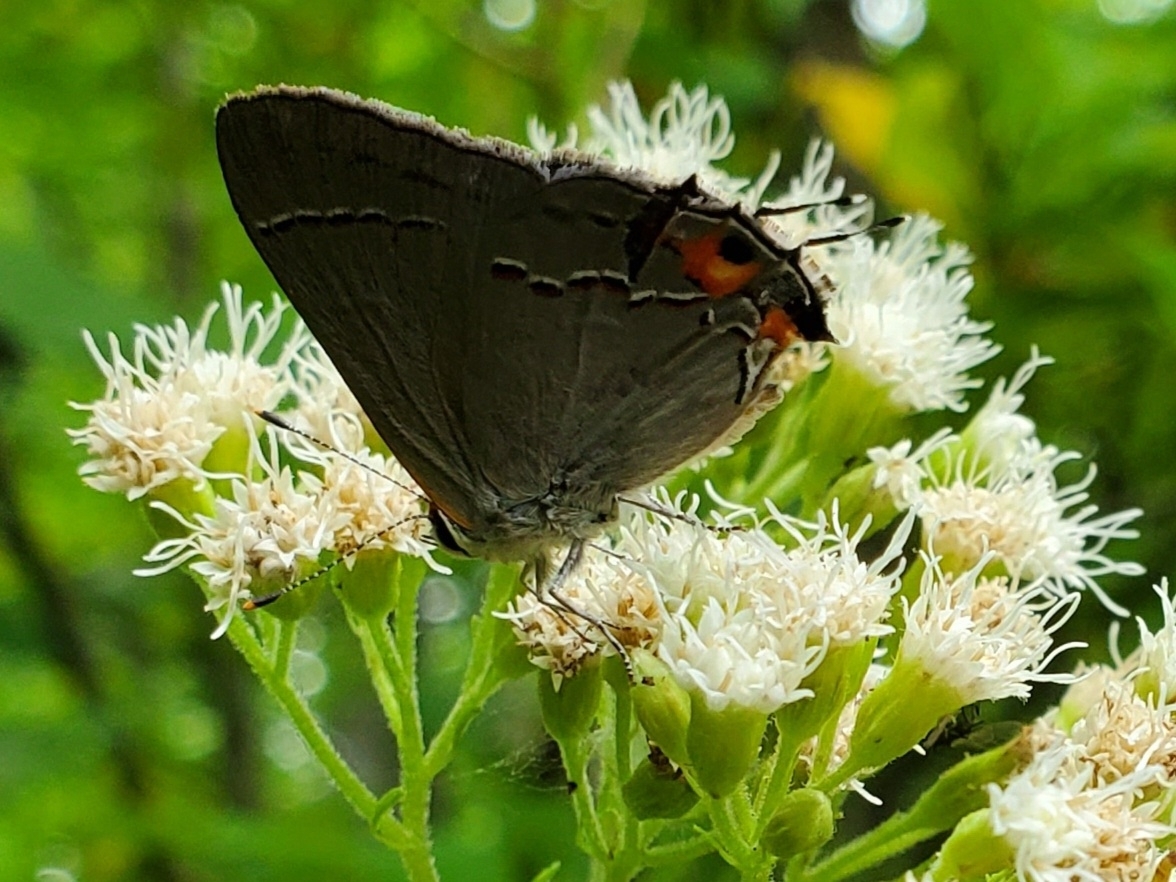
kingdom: Animalia
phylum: Arthropoda
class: Insecta
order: Lepidoptera
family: Lycaenidae
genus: Strymon
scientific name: Strymon melinus
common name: Gray hairstreak
